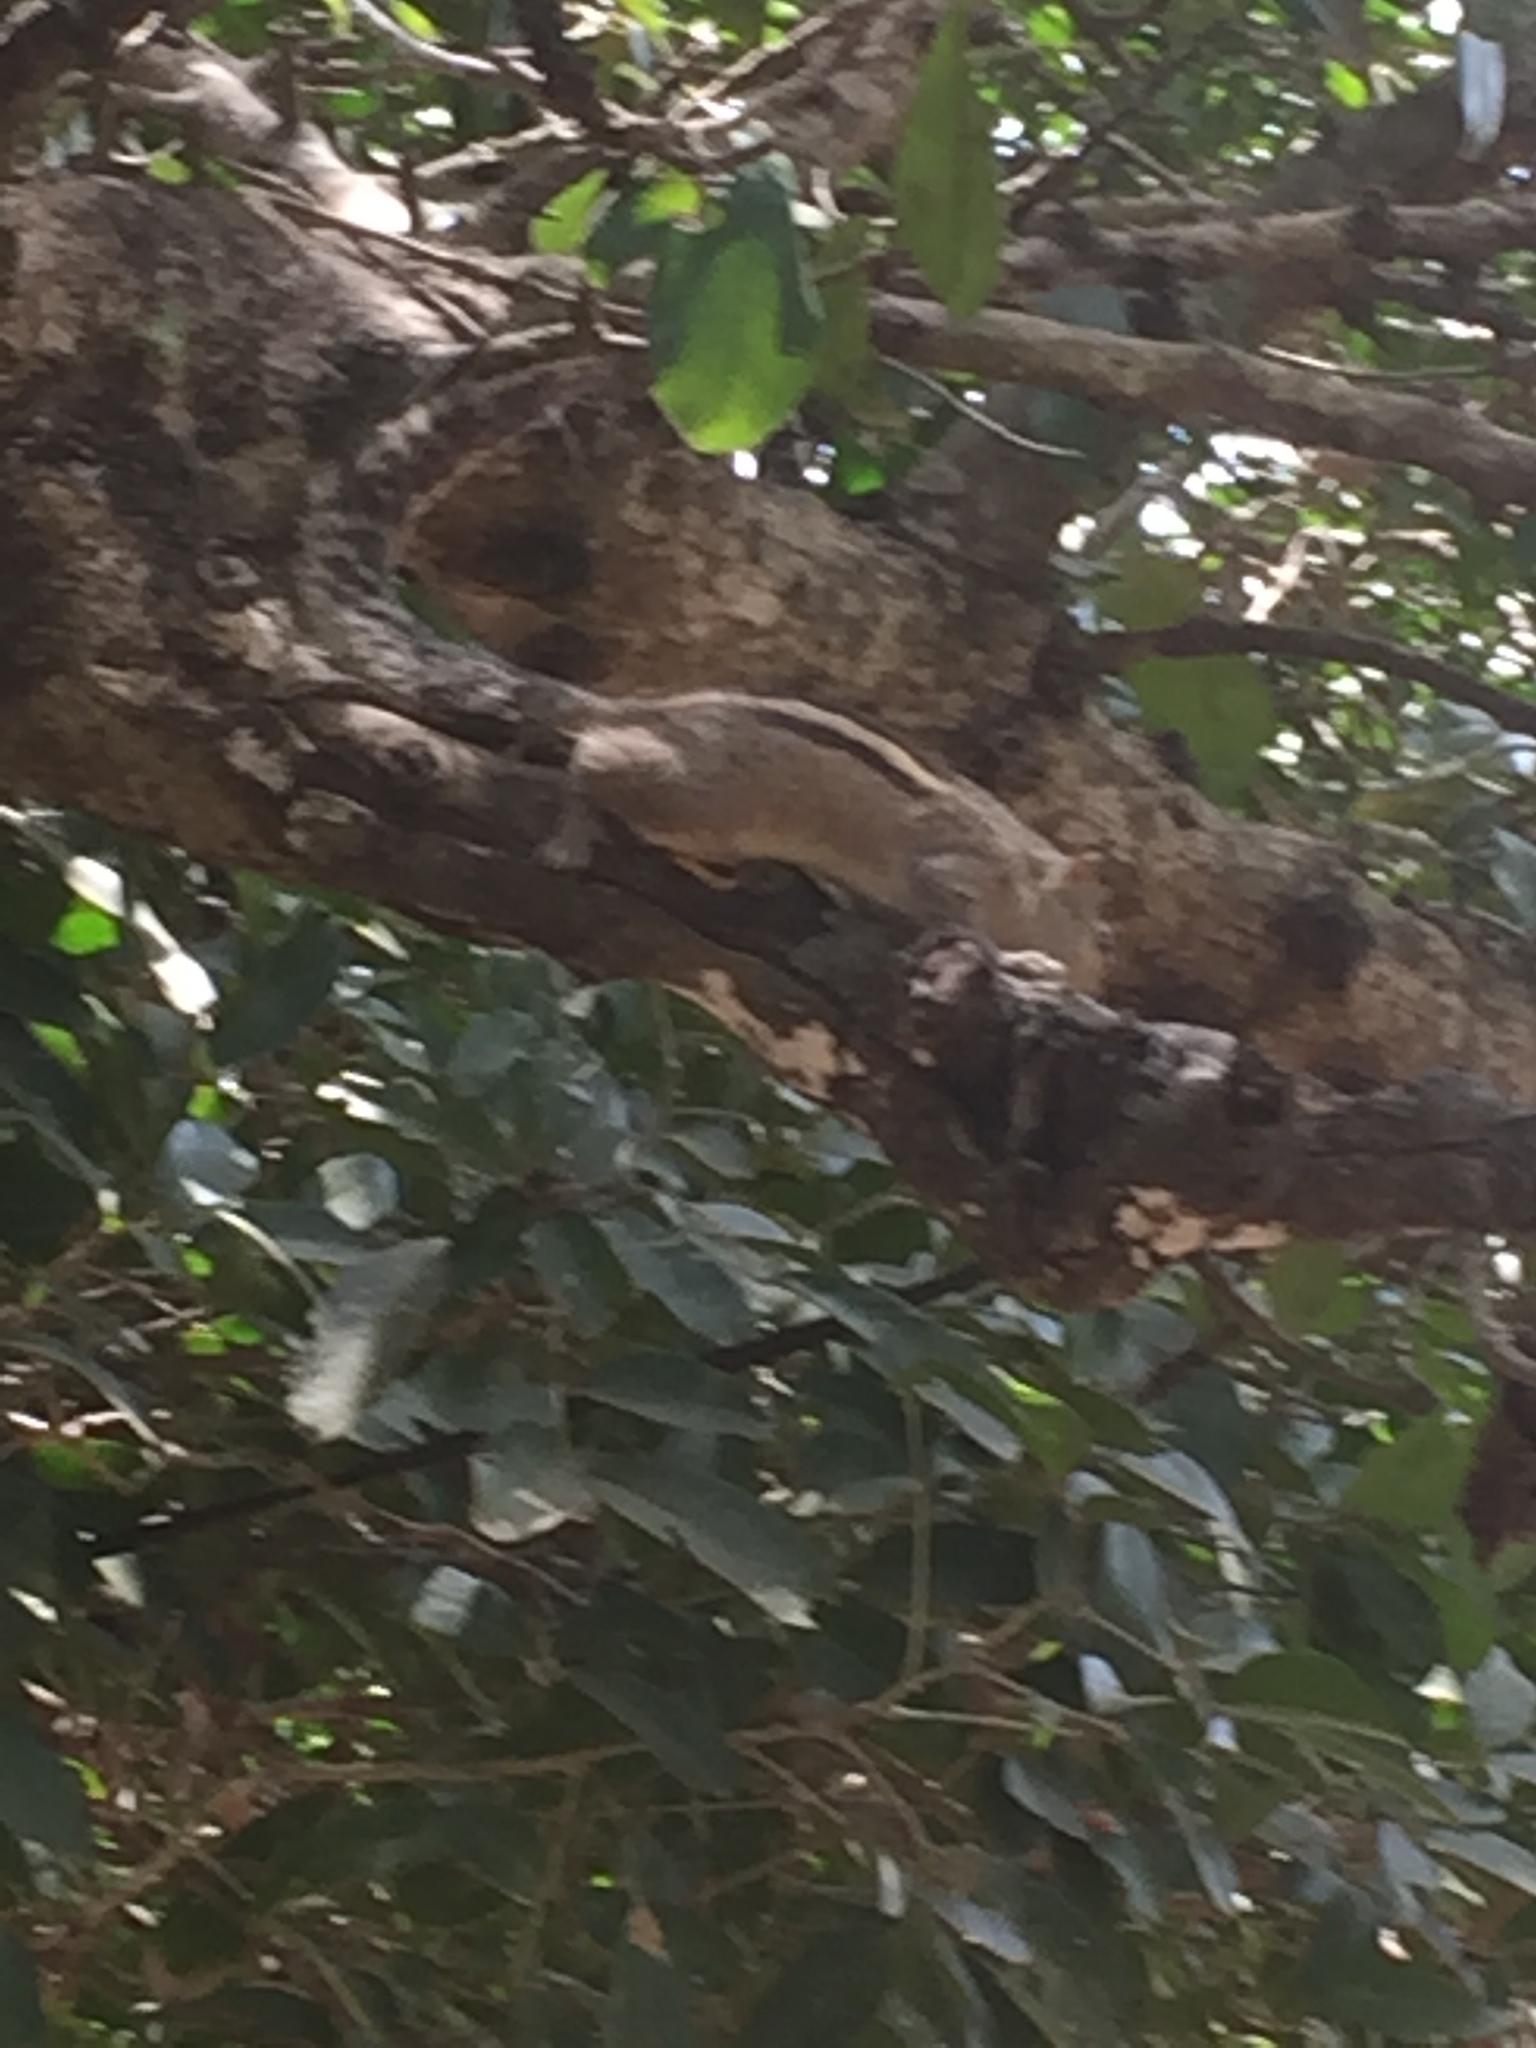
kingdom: Animalia
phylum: Chordata
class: Mammalia
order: Rodentia
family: Sciuridae
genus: Funambulus
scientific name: Funambulus palmarum
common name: Indian palm squirrel
